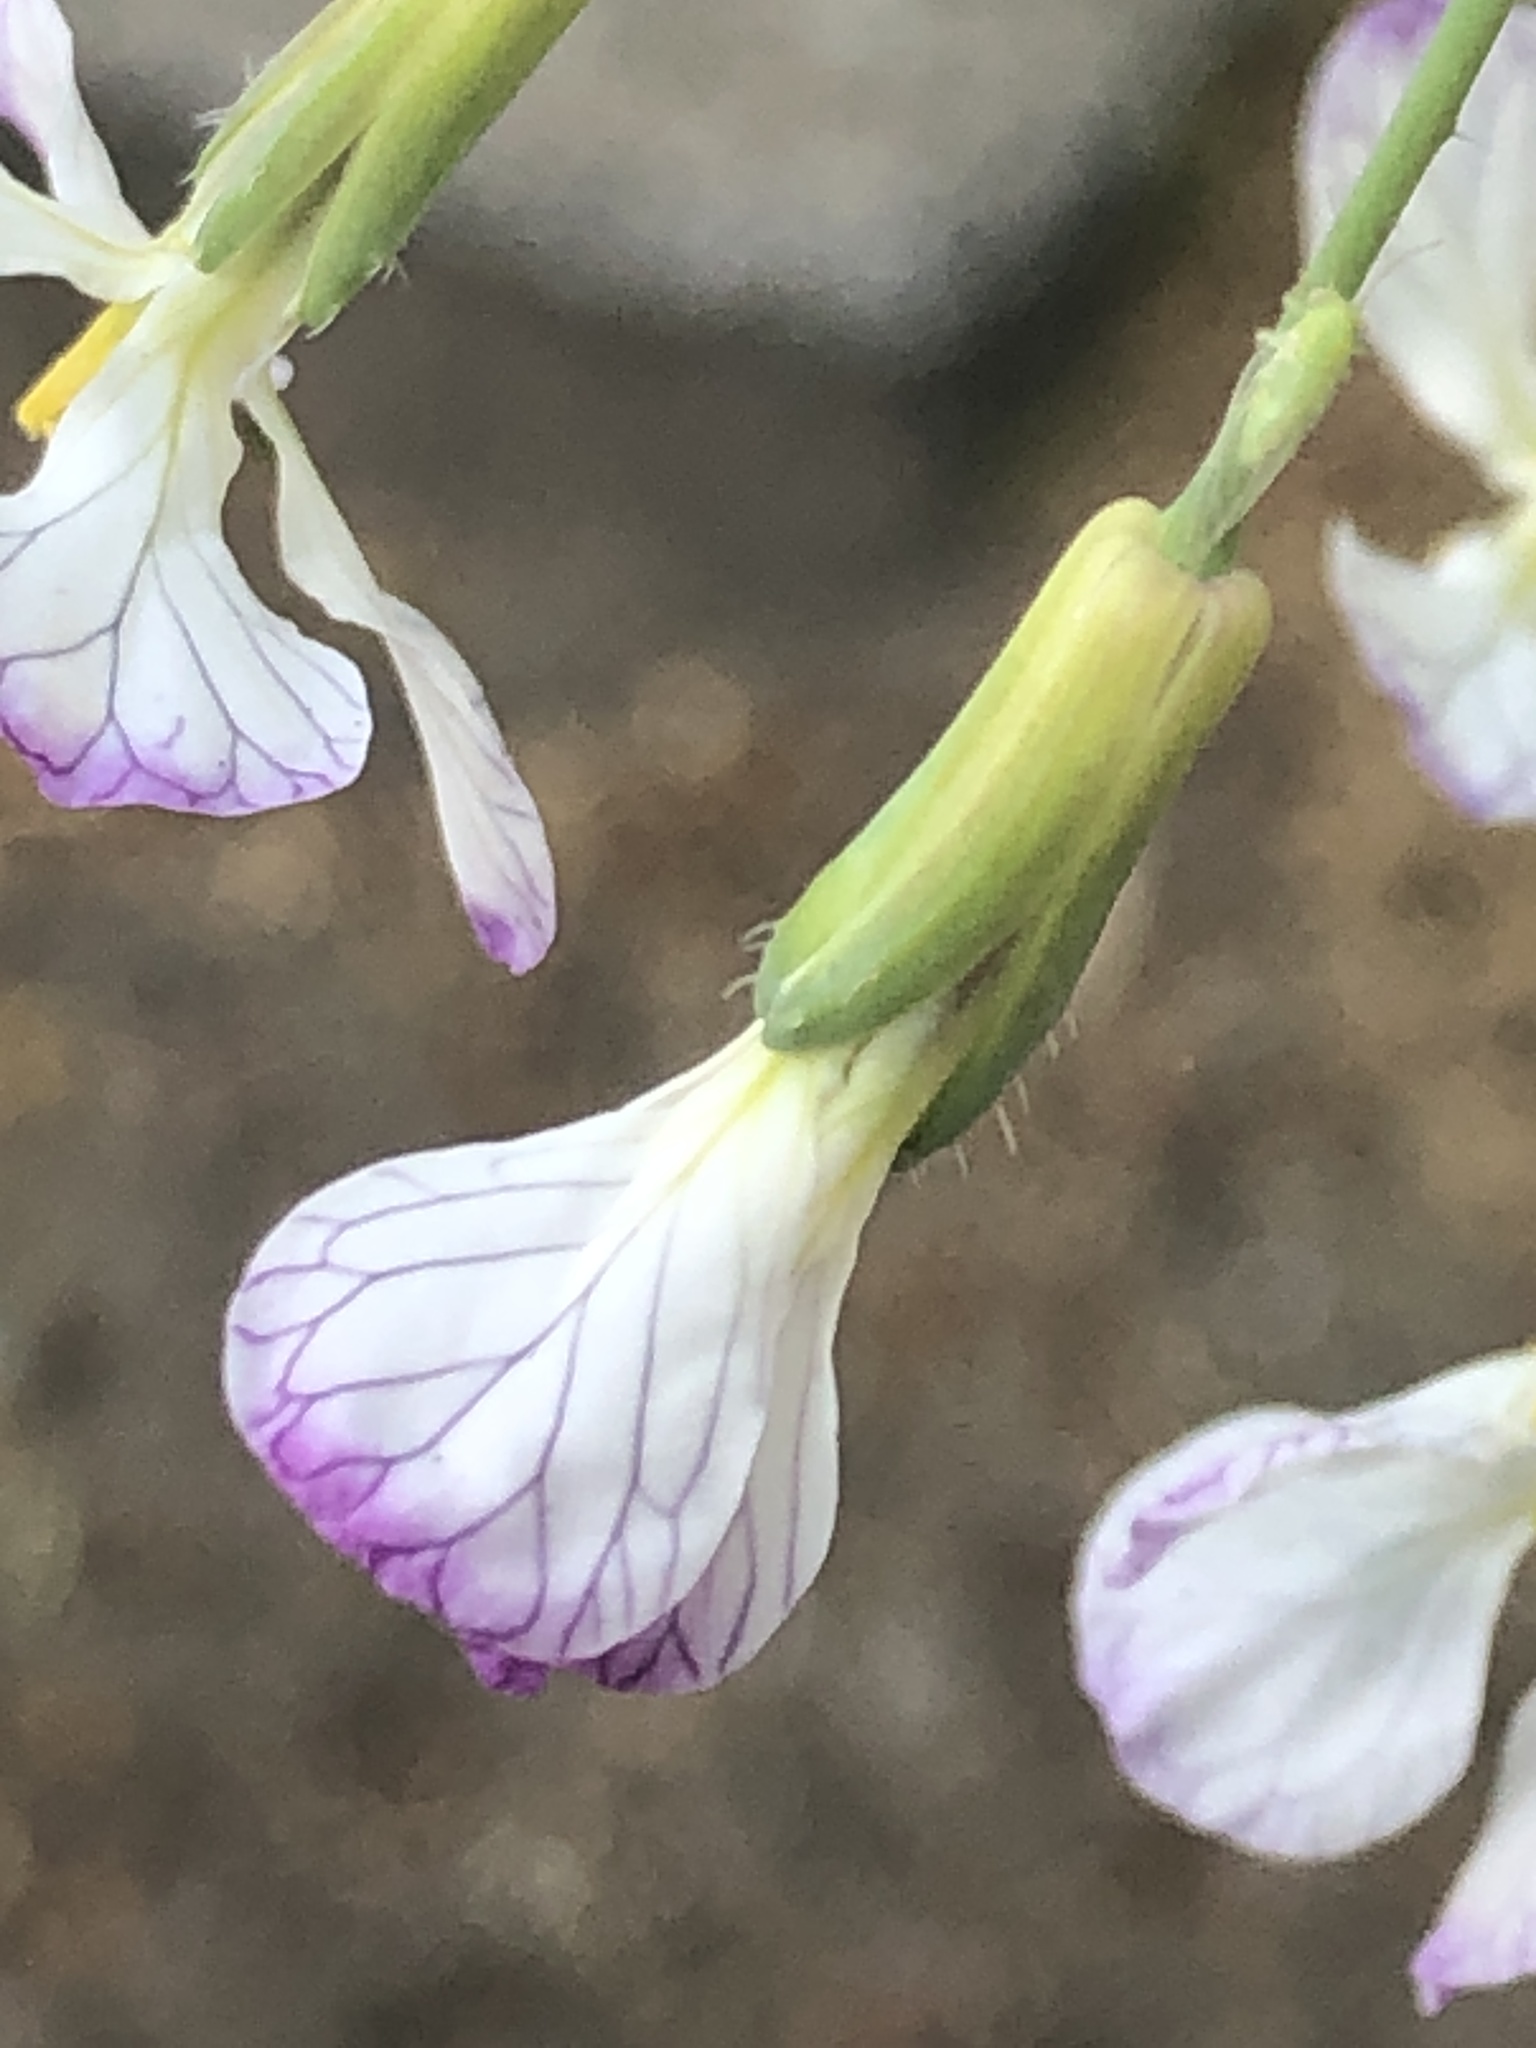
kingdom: Plantae
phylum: Tracheophyta
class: Magnoliopsida
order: Brassicales
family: Brassicaceae
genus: Raphanus
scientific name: Raphanus sativus
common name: Cultivated radish
